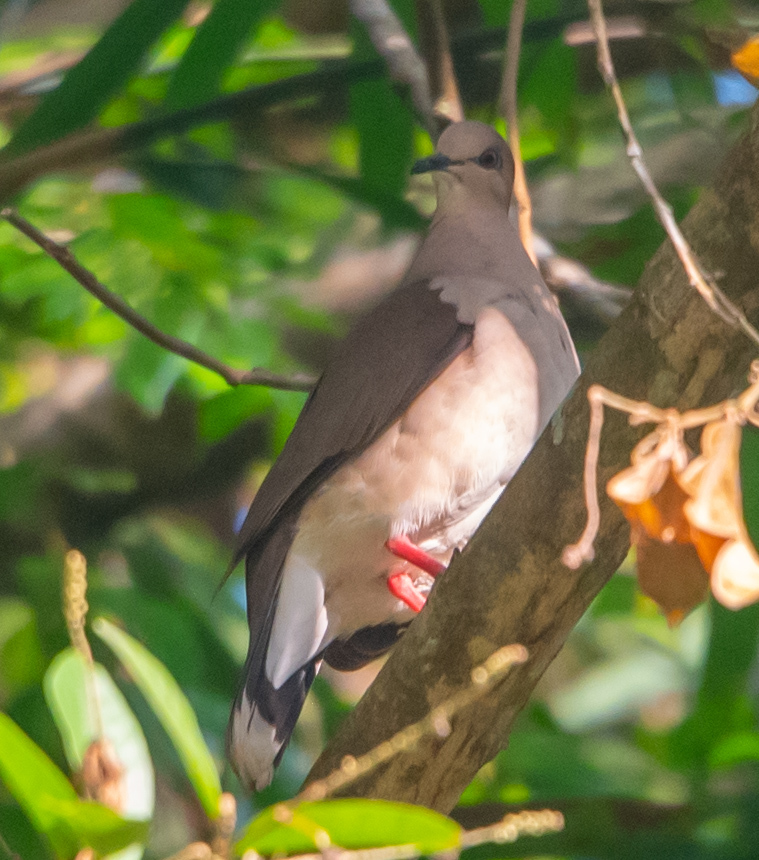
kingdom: Animalia
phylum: Chordata
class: Aves
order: Columbiformes
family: Columbidae
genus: Leptotila
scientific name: Leptotila verreauxi
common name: White-tipped dove
